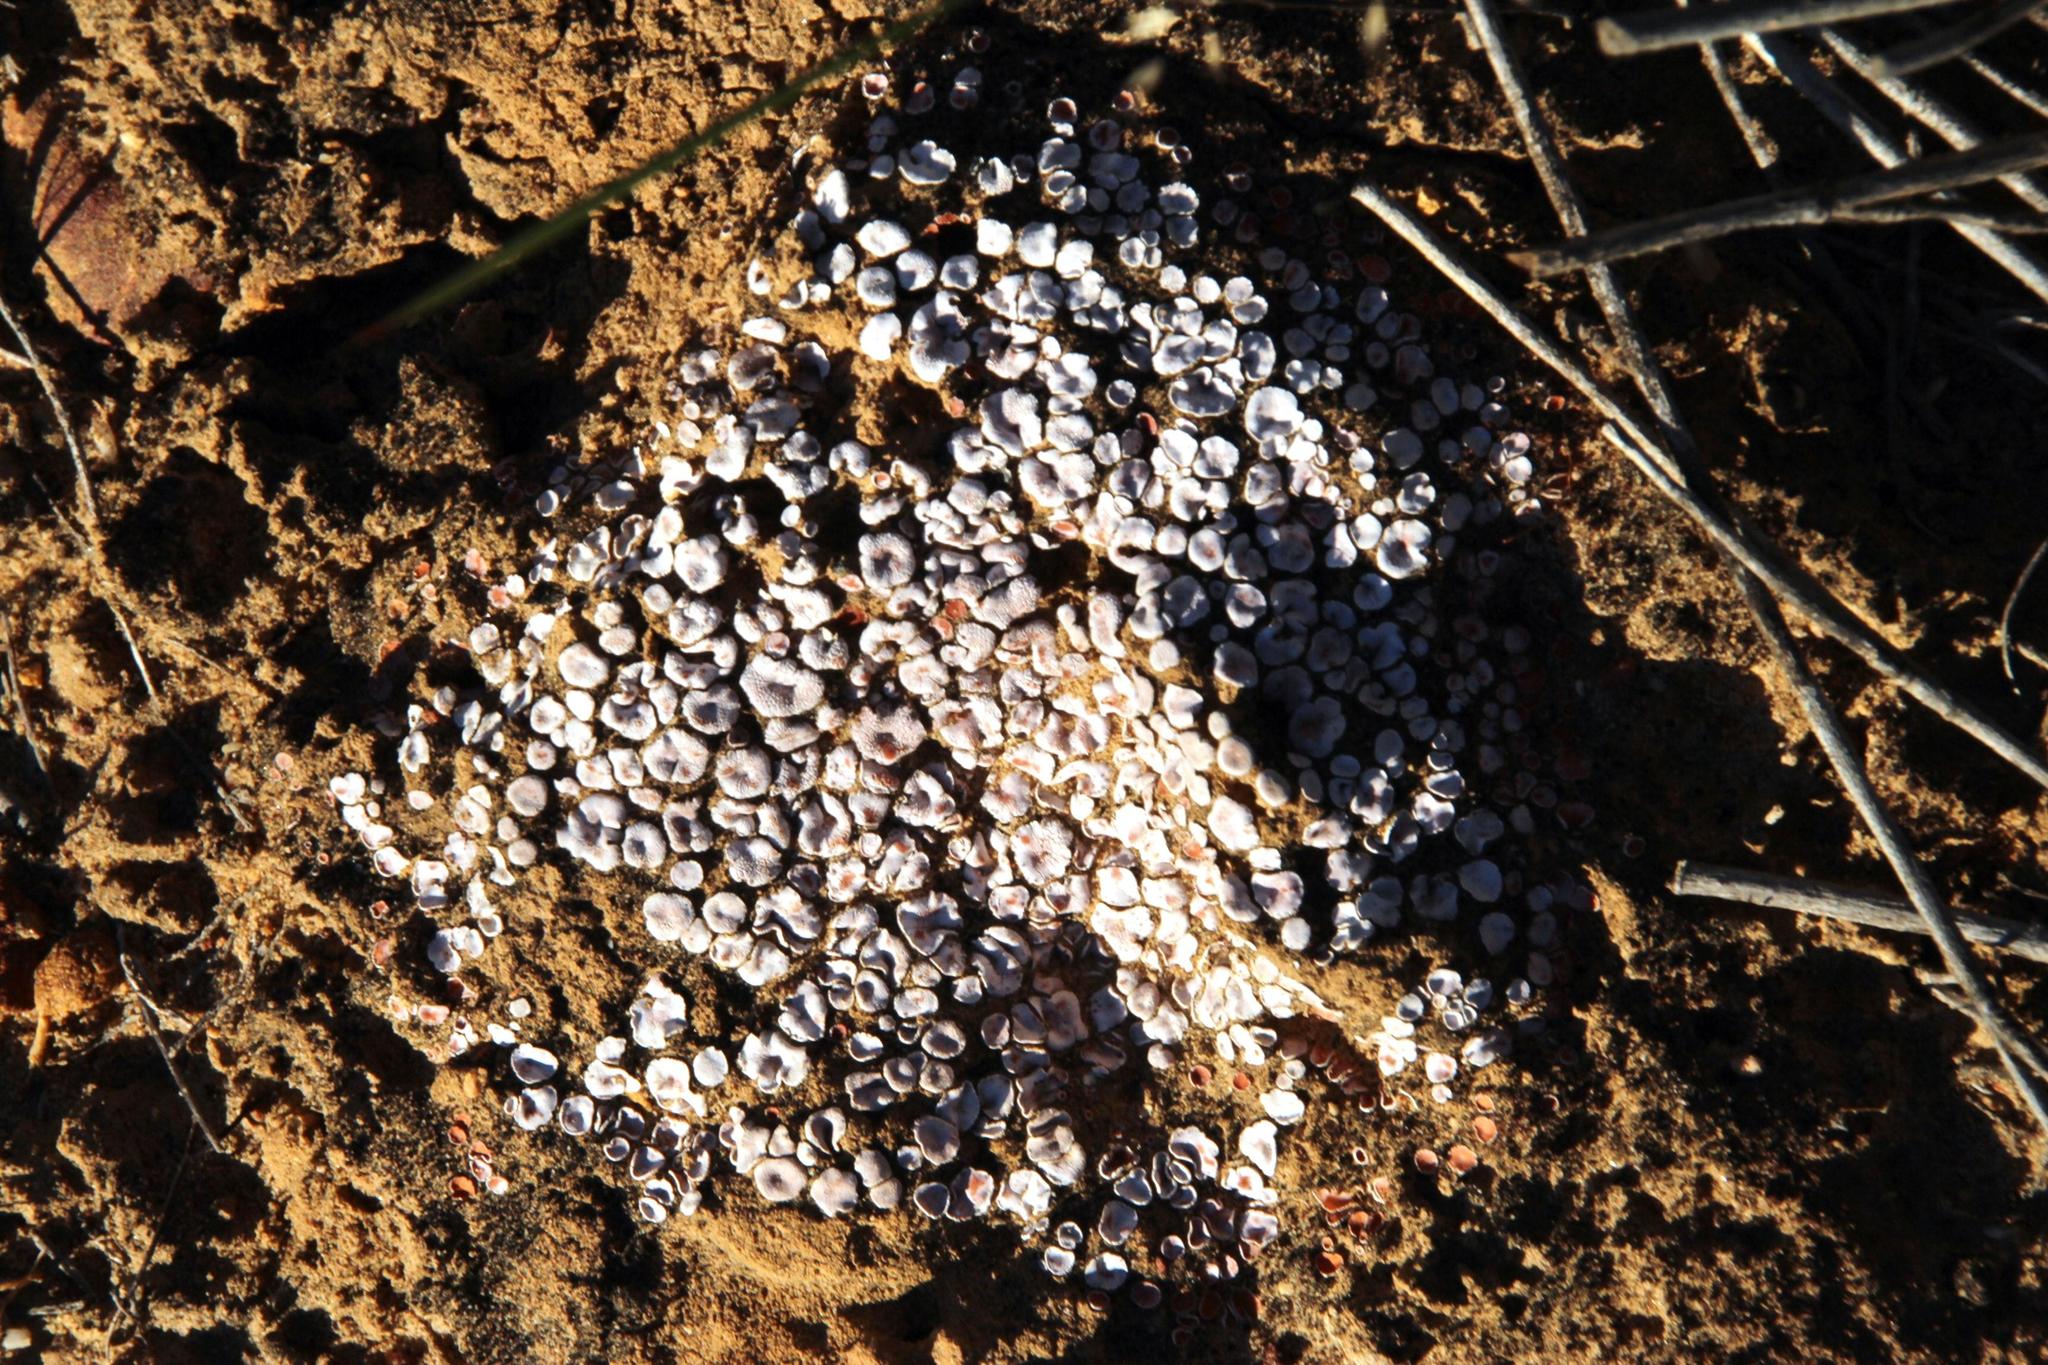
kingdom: Fungi
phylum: Ascomycota
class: Lecanoromycetes
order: Lecanorales
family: Psoraceae
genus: Psora
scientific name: Psora crenata
